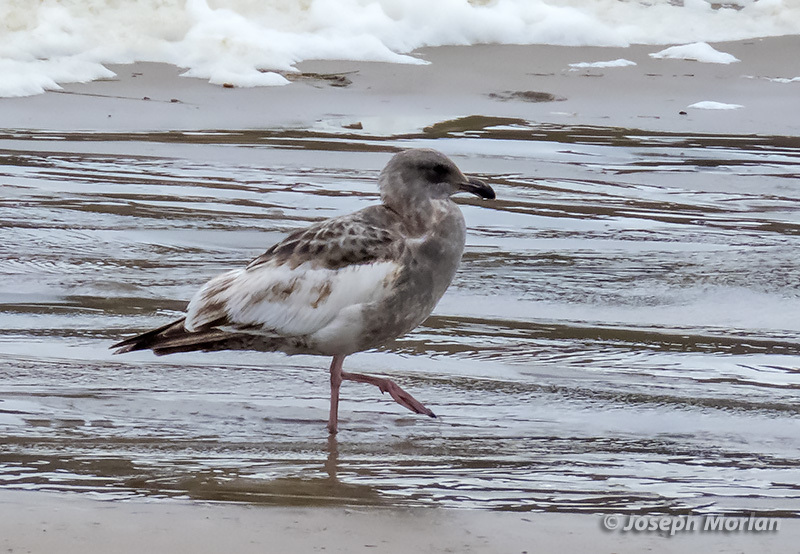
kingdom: Animalia
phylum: Chordata
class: Aves
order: Charadriiformes
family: Laridae
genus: Larus
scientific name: Larus occidentalis
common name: Western gull
